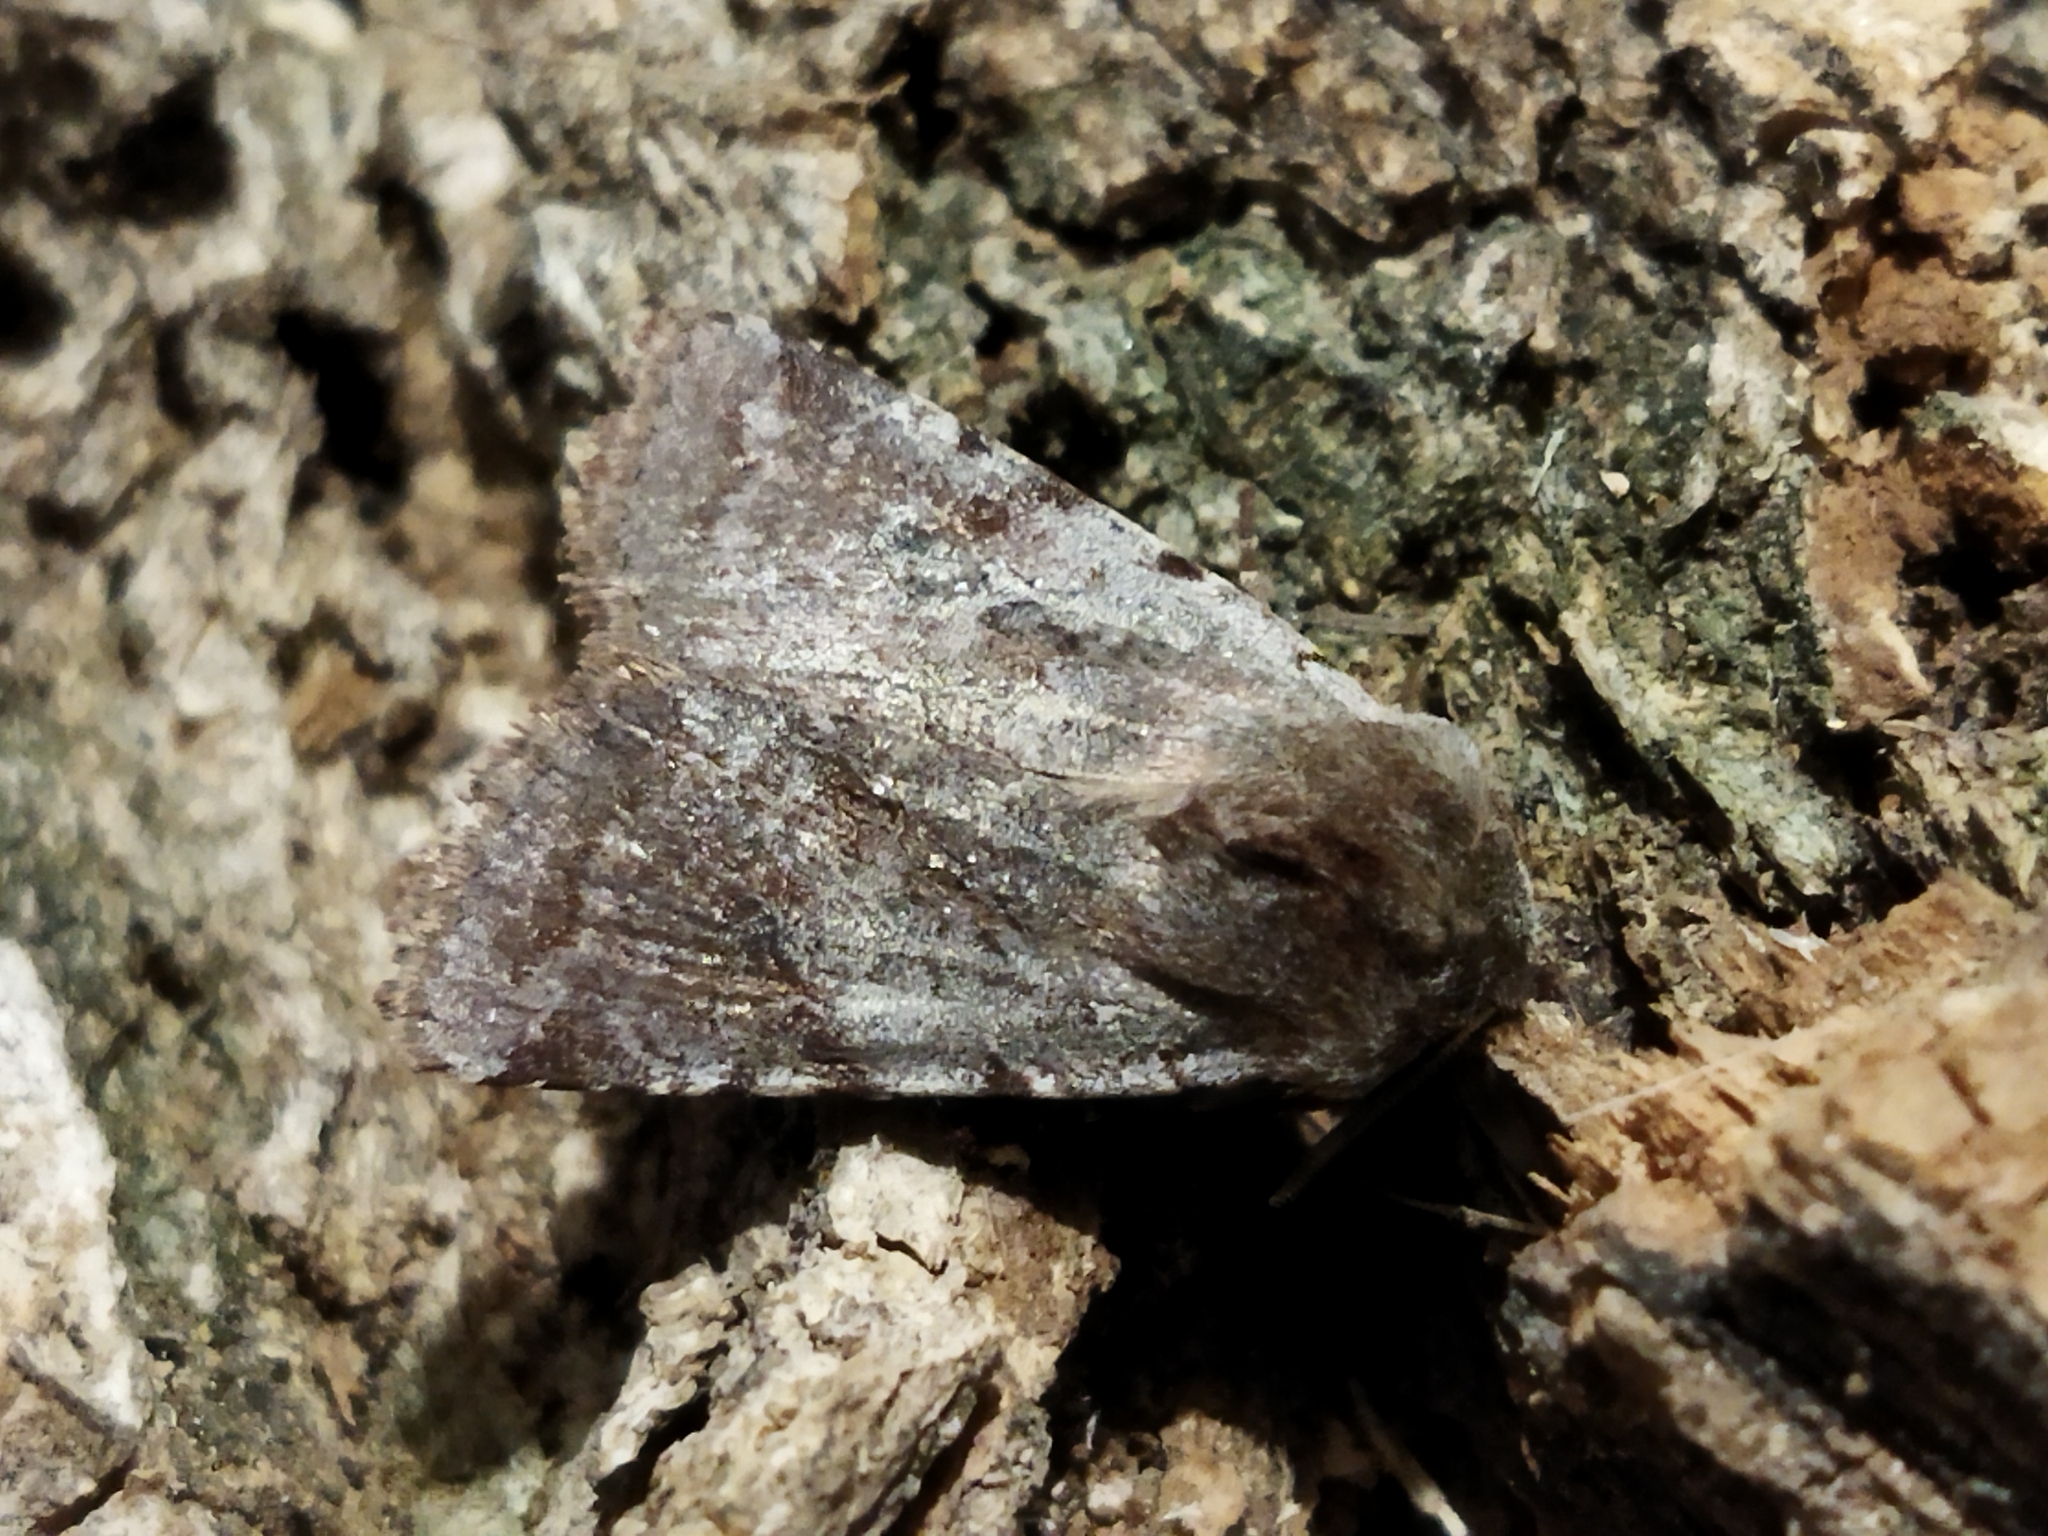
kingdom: Animalia
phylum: Arthropoda
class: Insecta
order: Lepidoptera
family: Noctuidae
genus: Cerastis
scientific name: Cerastis rubricosa
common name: Red chestnut
